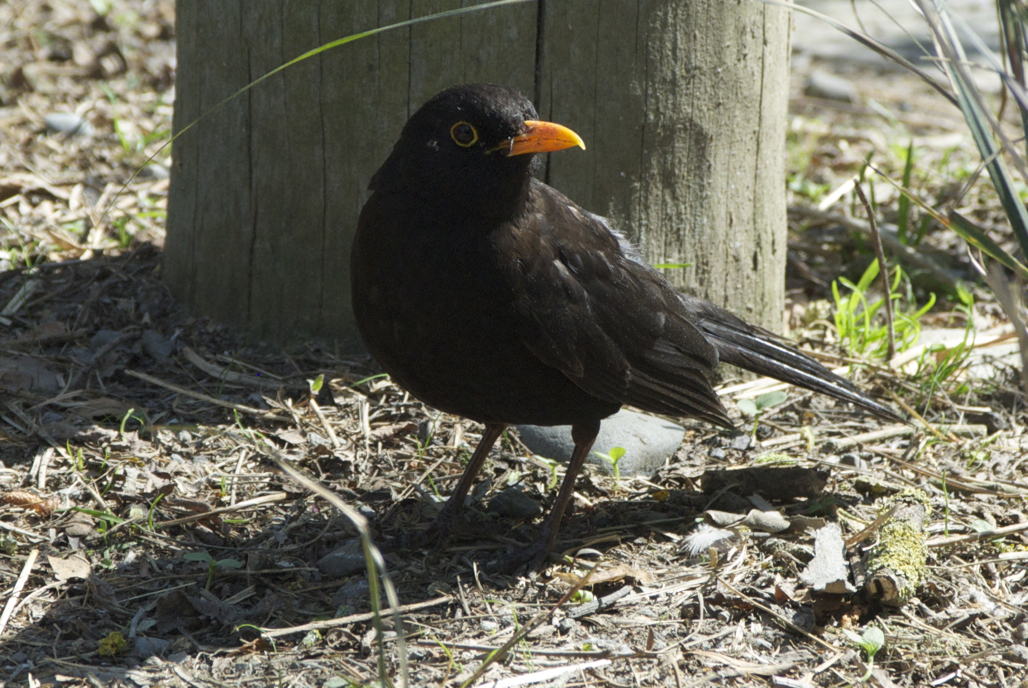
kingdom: Animalia
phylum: Chordata
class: Aves
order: Passeriformes
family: Turdidae
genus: Turdus
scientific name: Turdus merula
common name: Common blackbird
